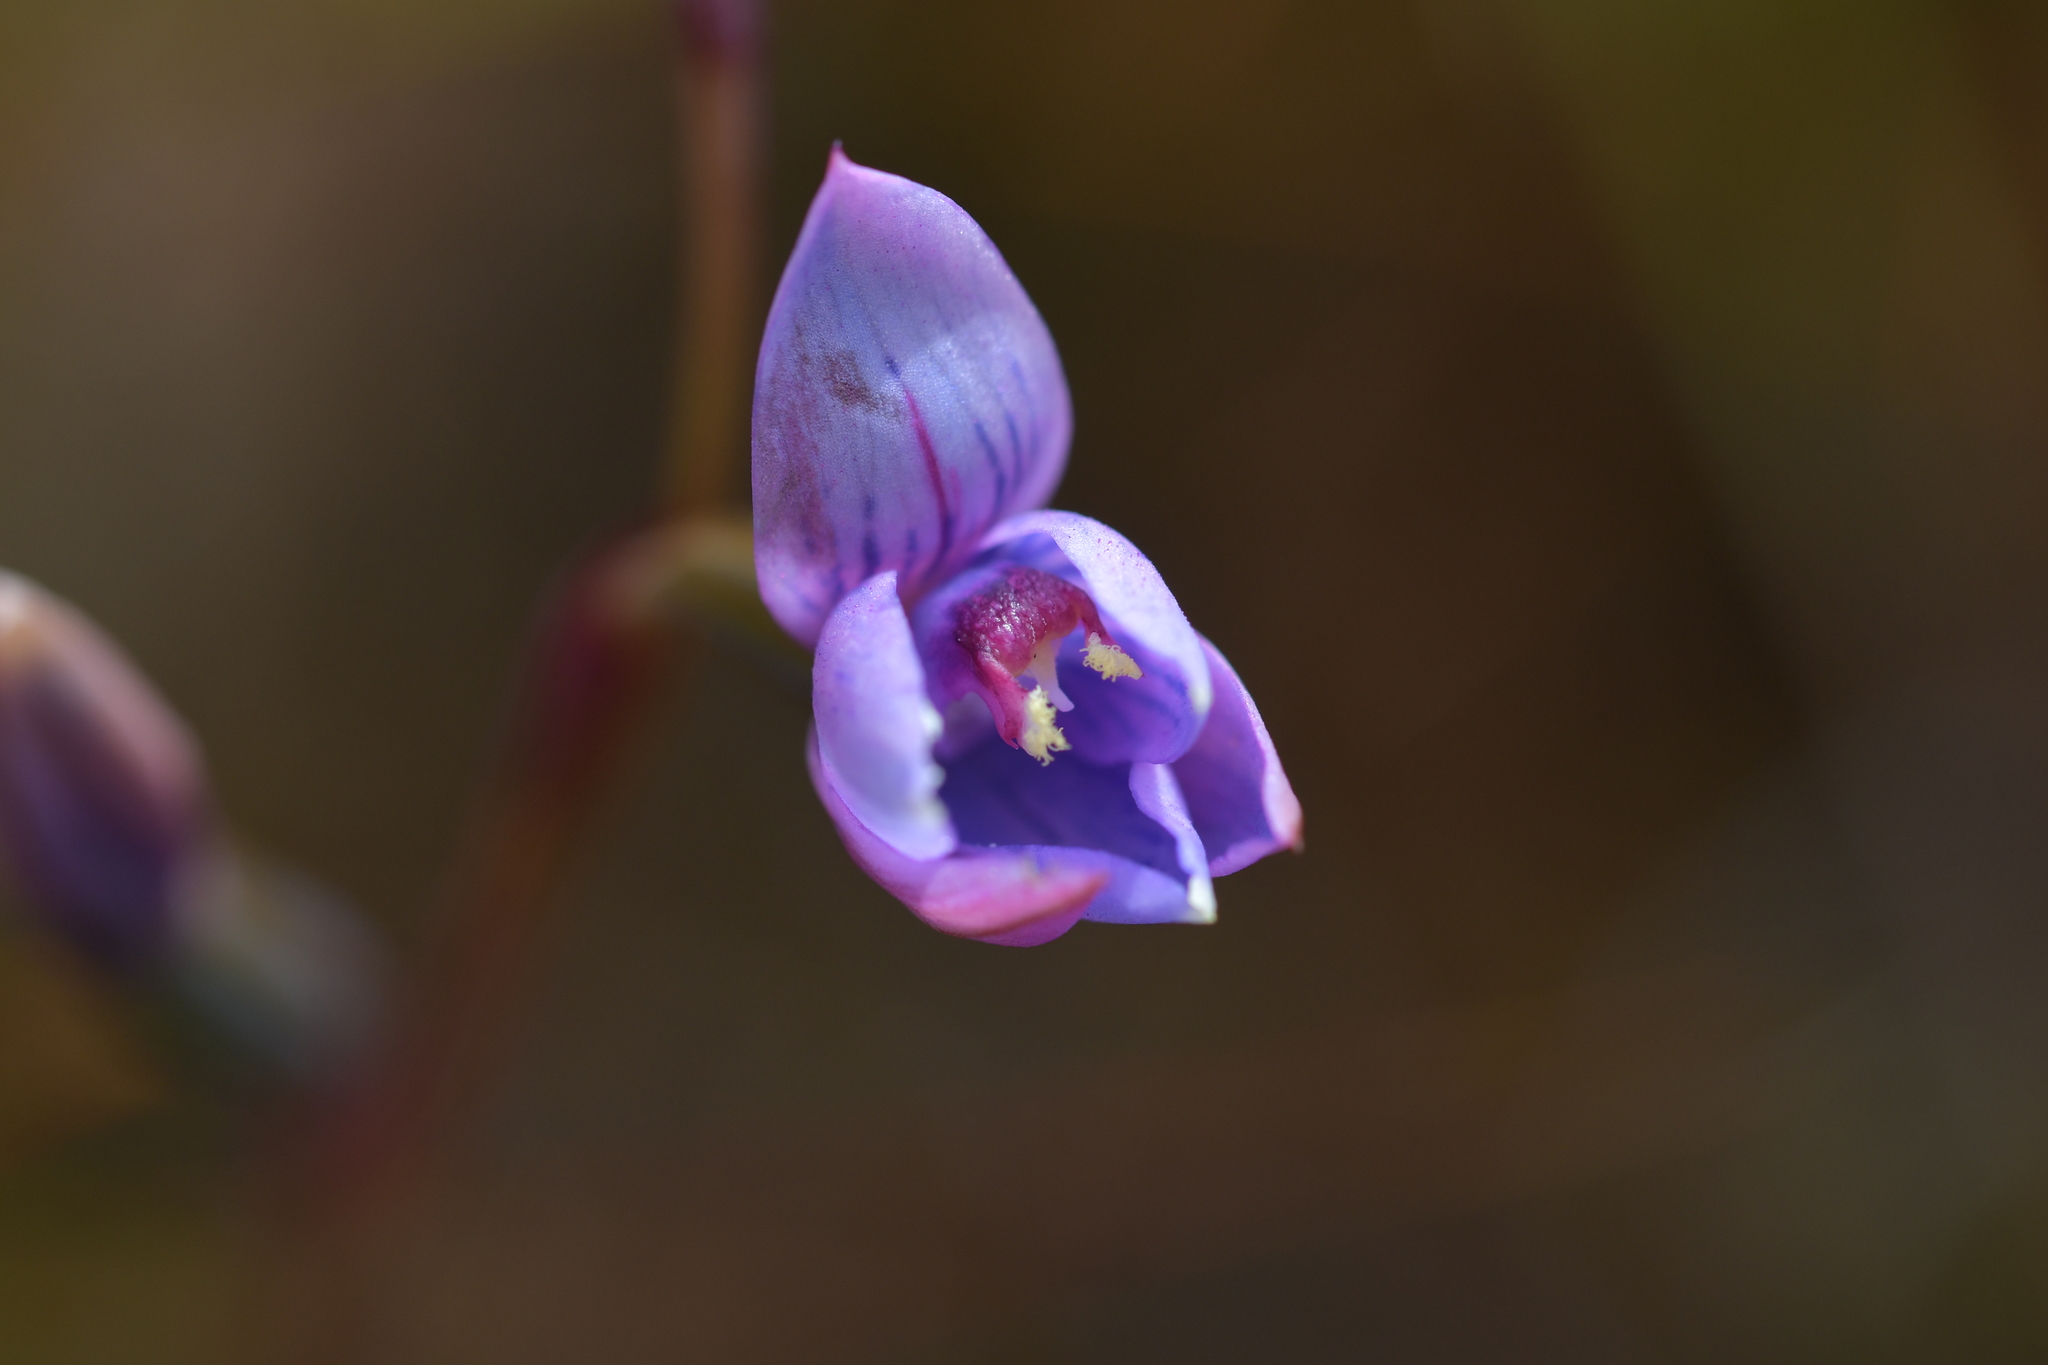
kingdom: Plantae
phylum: Tracheophyta
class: Liliopsida
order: Asparagales
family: Orchidaceae
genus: Thelymitra
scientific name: Thelymitra pulchella
